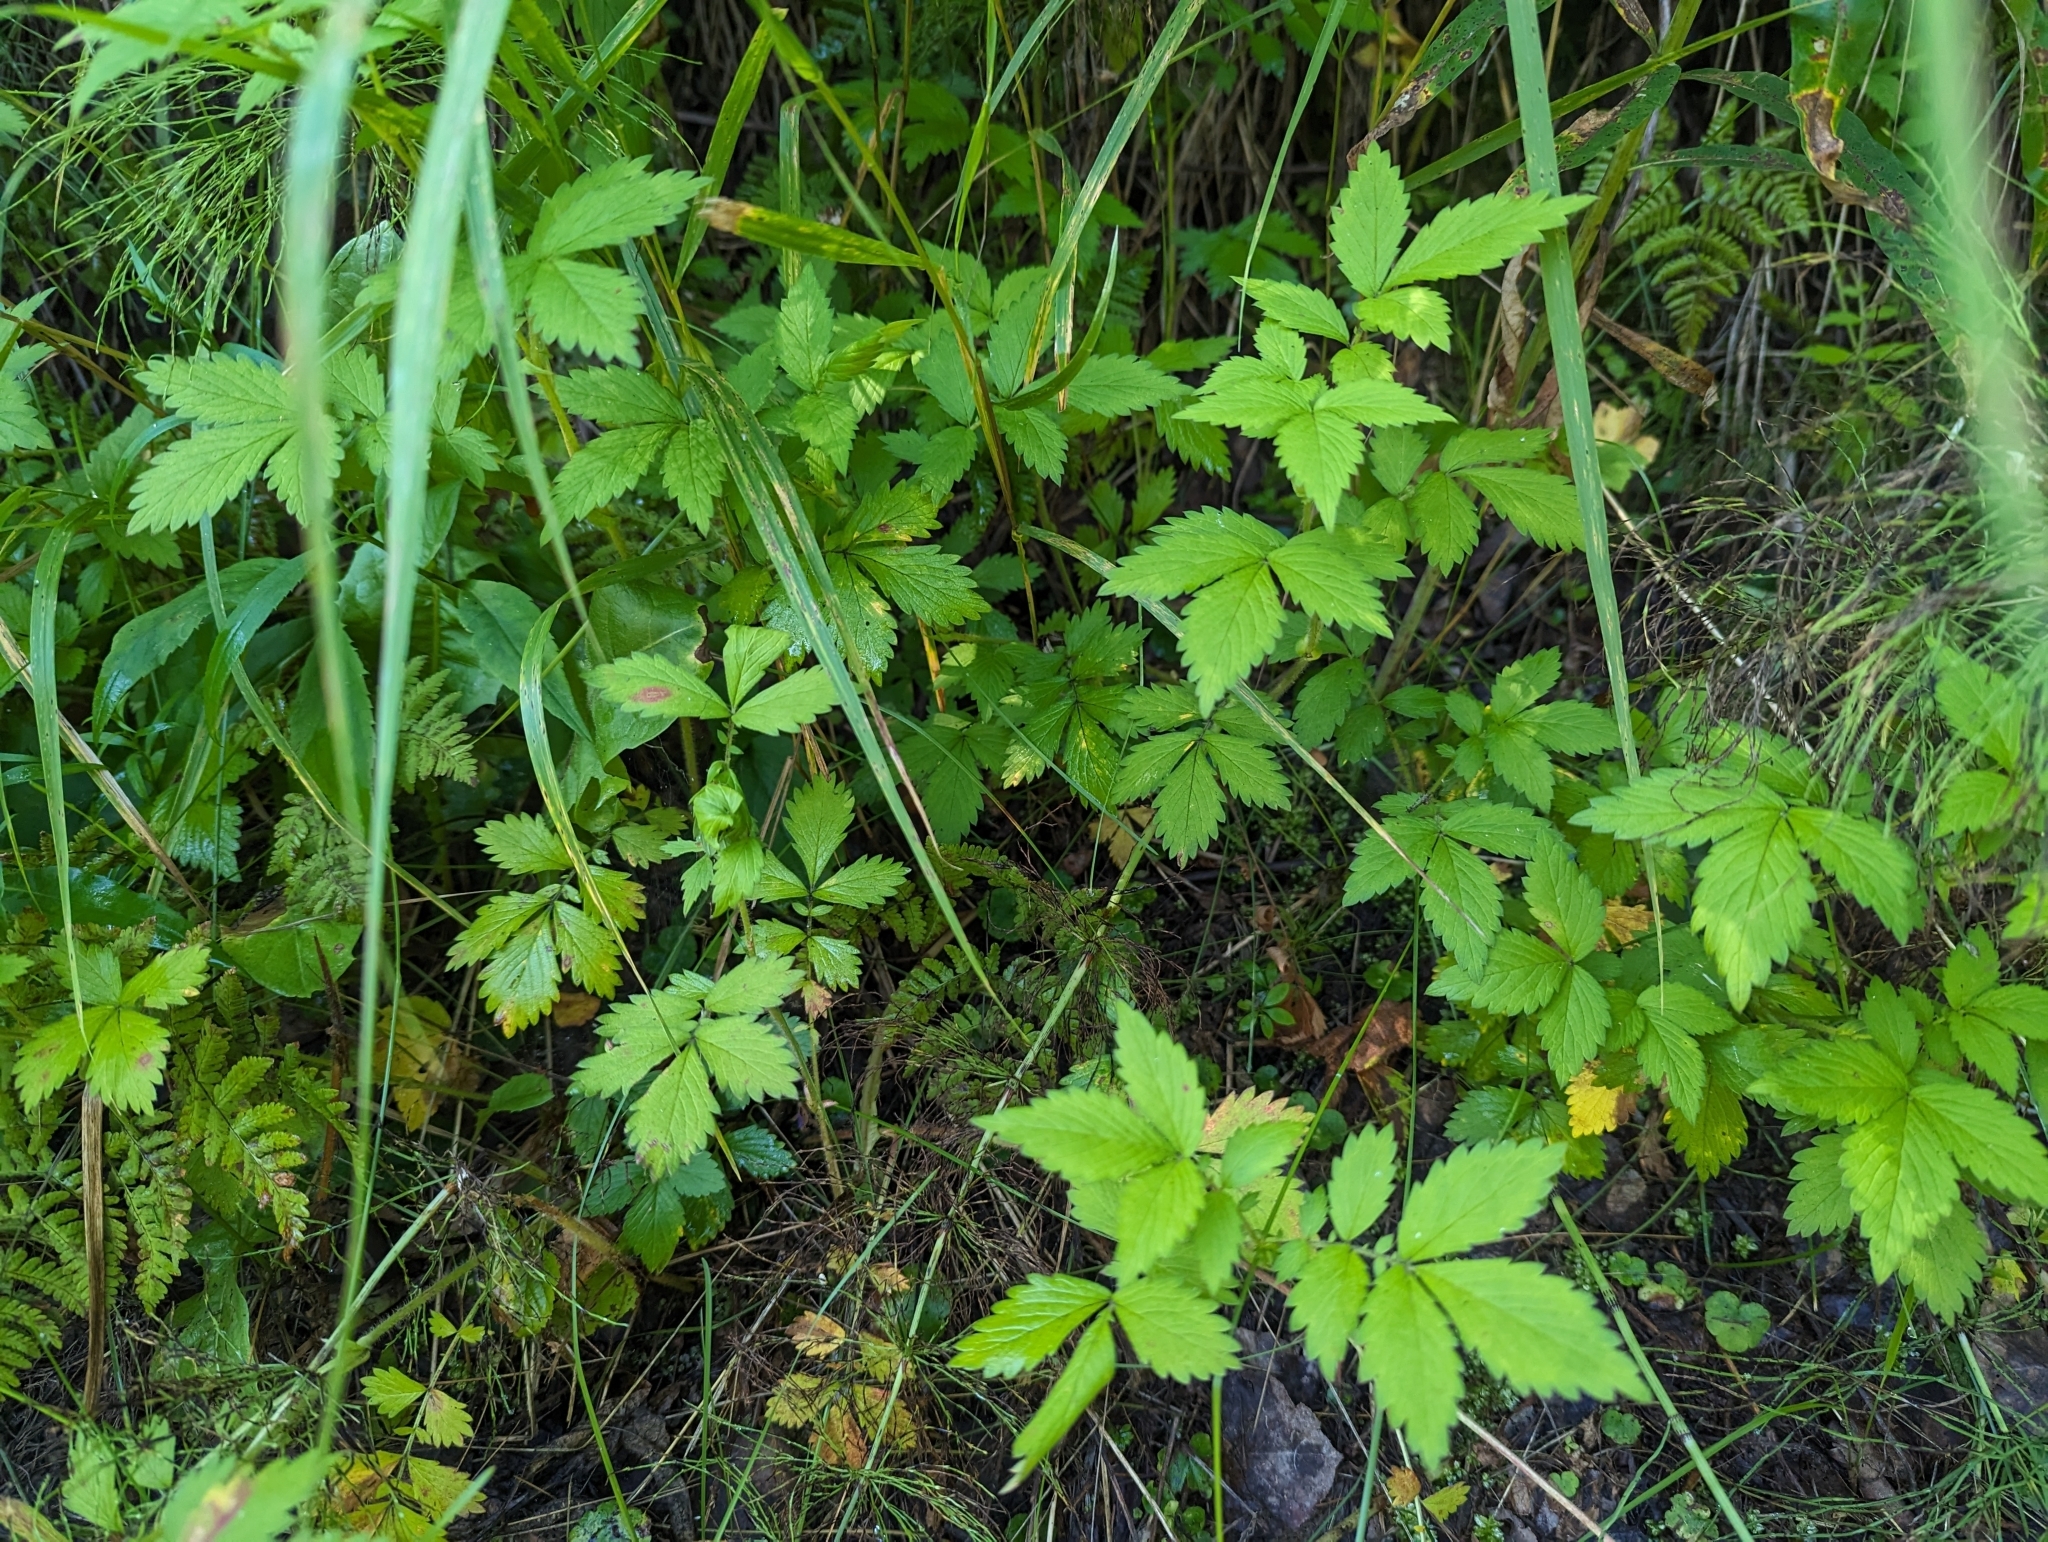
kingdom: Plantae
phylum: Tracheophyta
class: Magnoliopsida
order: Rosales
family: Rosaceae
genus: Agrimonia
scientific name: Agrimonia striata
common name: Britton's agrimony
